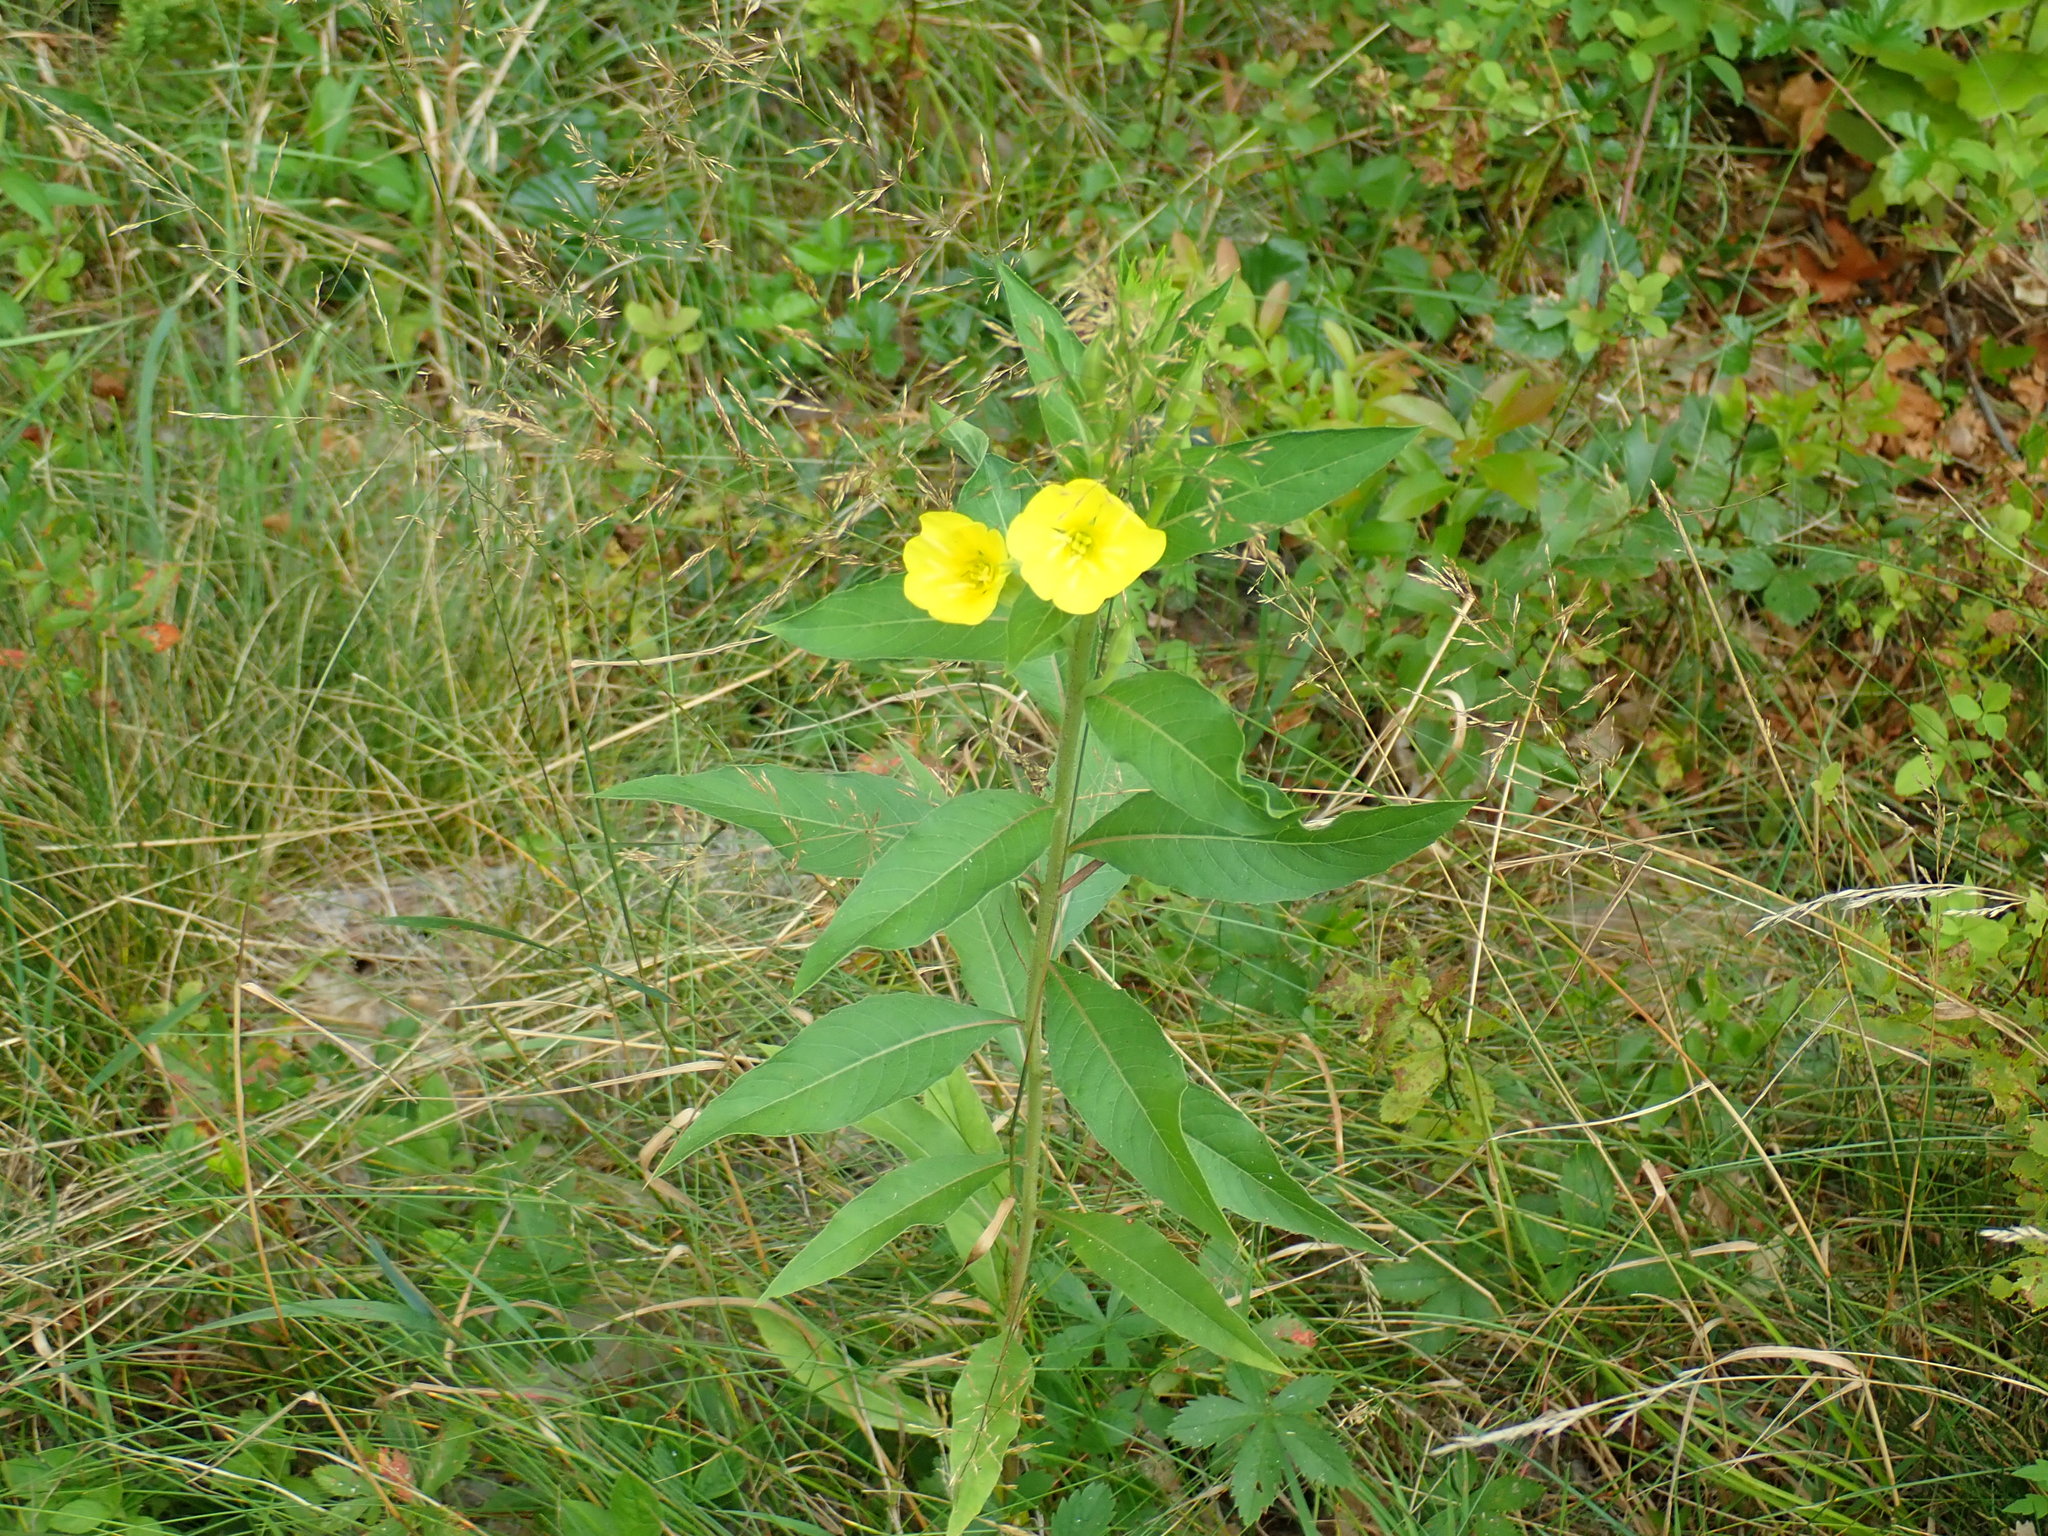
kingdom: Plantae
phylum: Tracheophyta
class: Magnoliopsida
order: Myrtales
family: Onagraceae
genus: Oenothera
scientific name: Oenothera biennis
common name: Common evening-primrose
